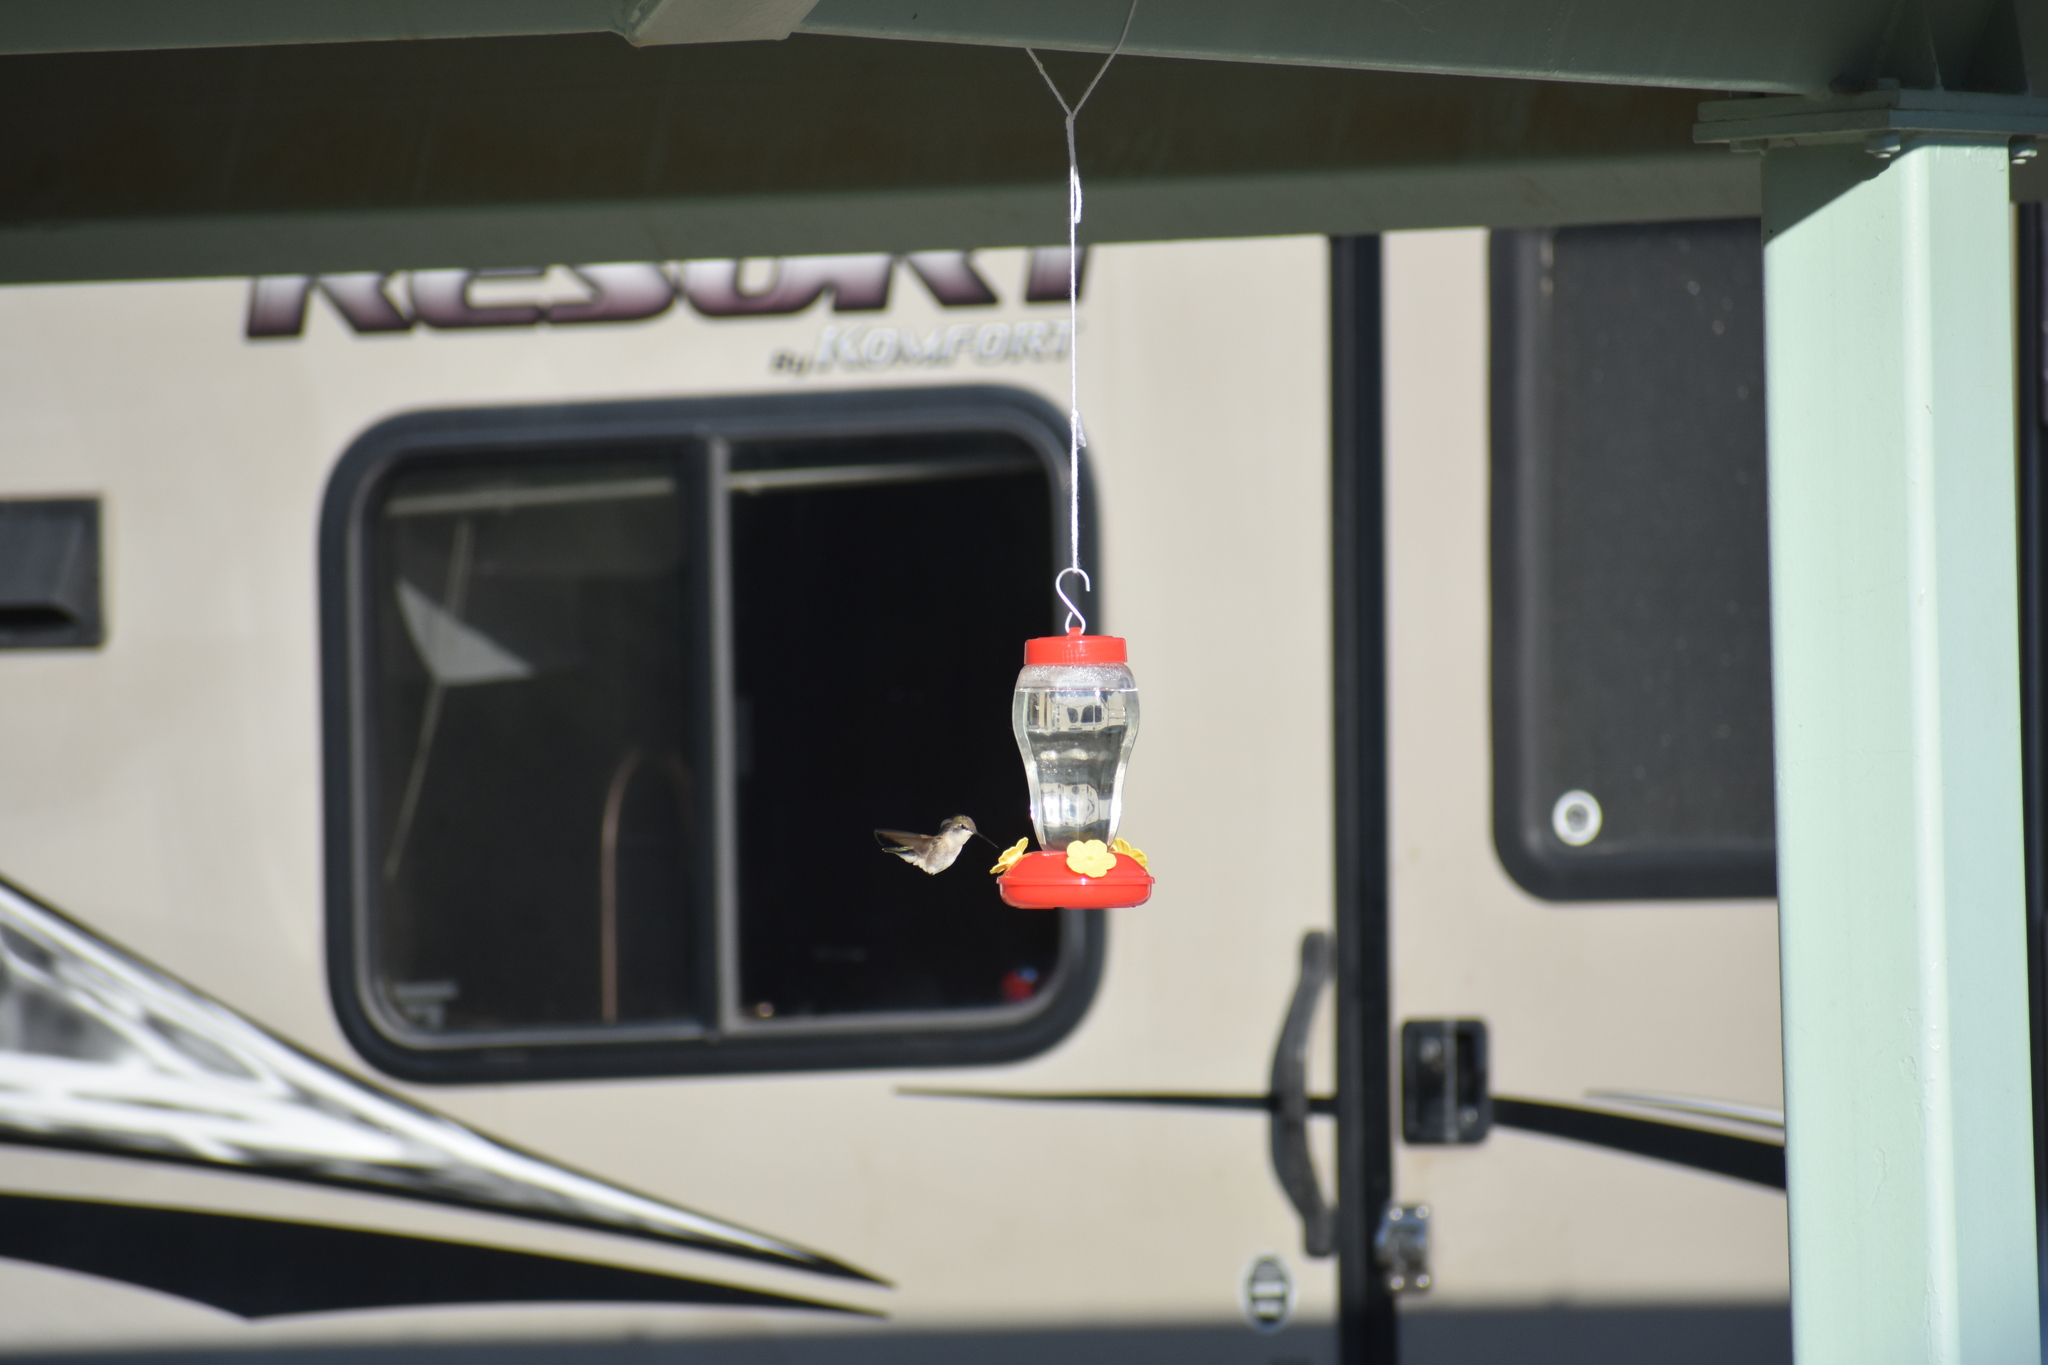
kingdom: Animalia
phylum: Chordata
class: Aves
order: Apodiformes
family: Trochilidae
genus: Archilochus
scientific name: Archilochus alexandri
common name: Black-chinned hummingbird
